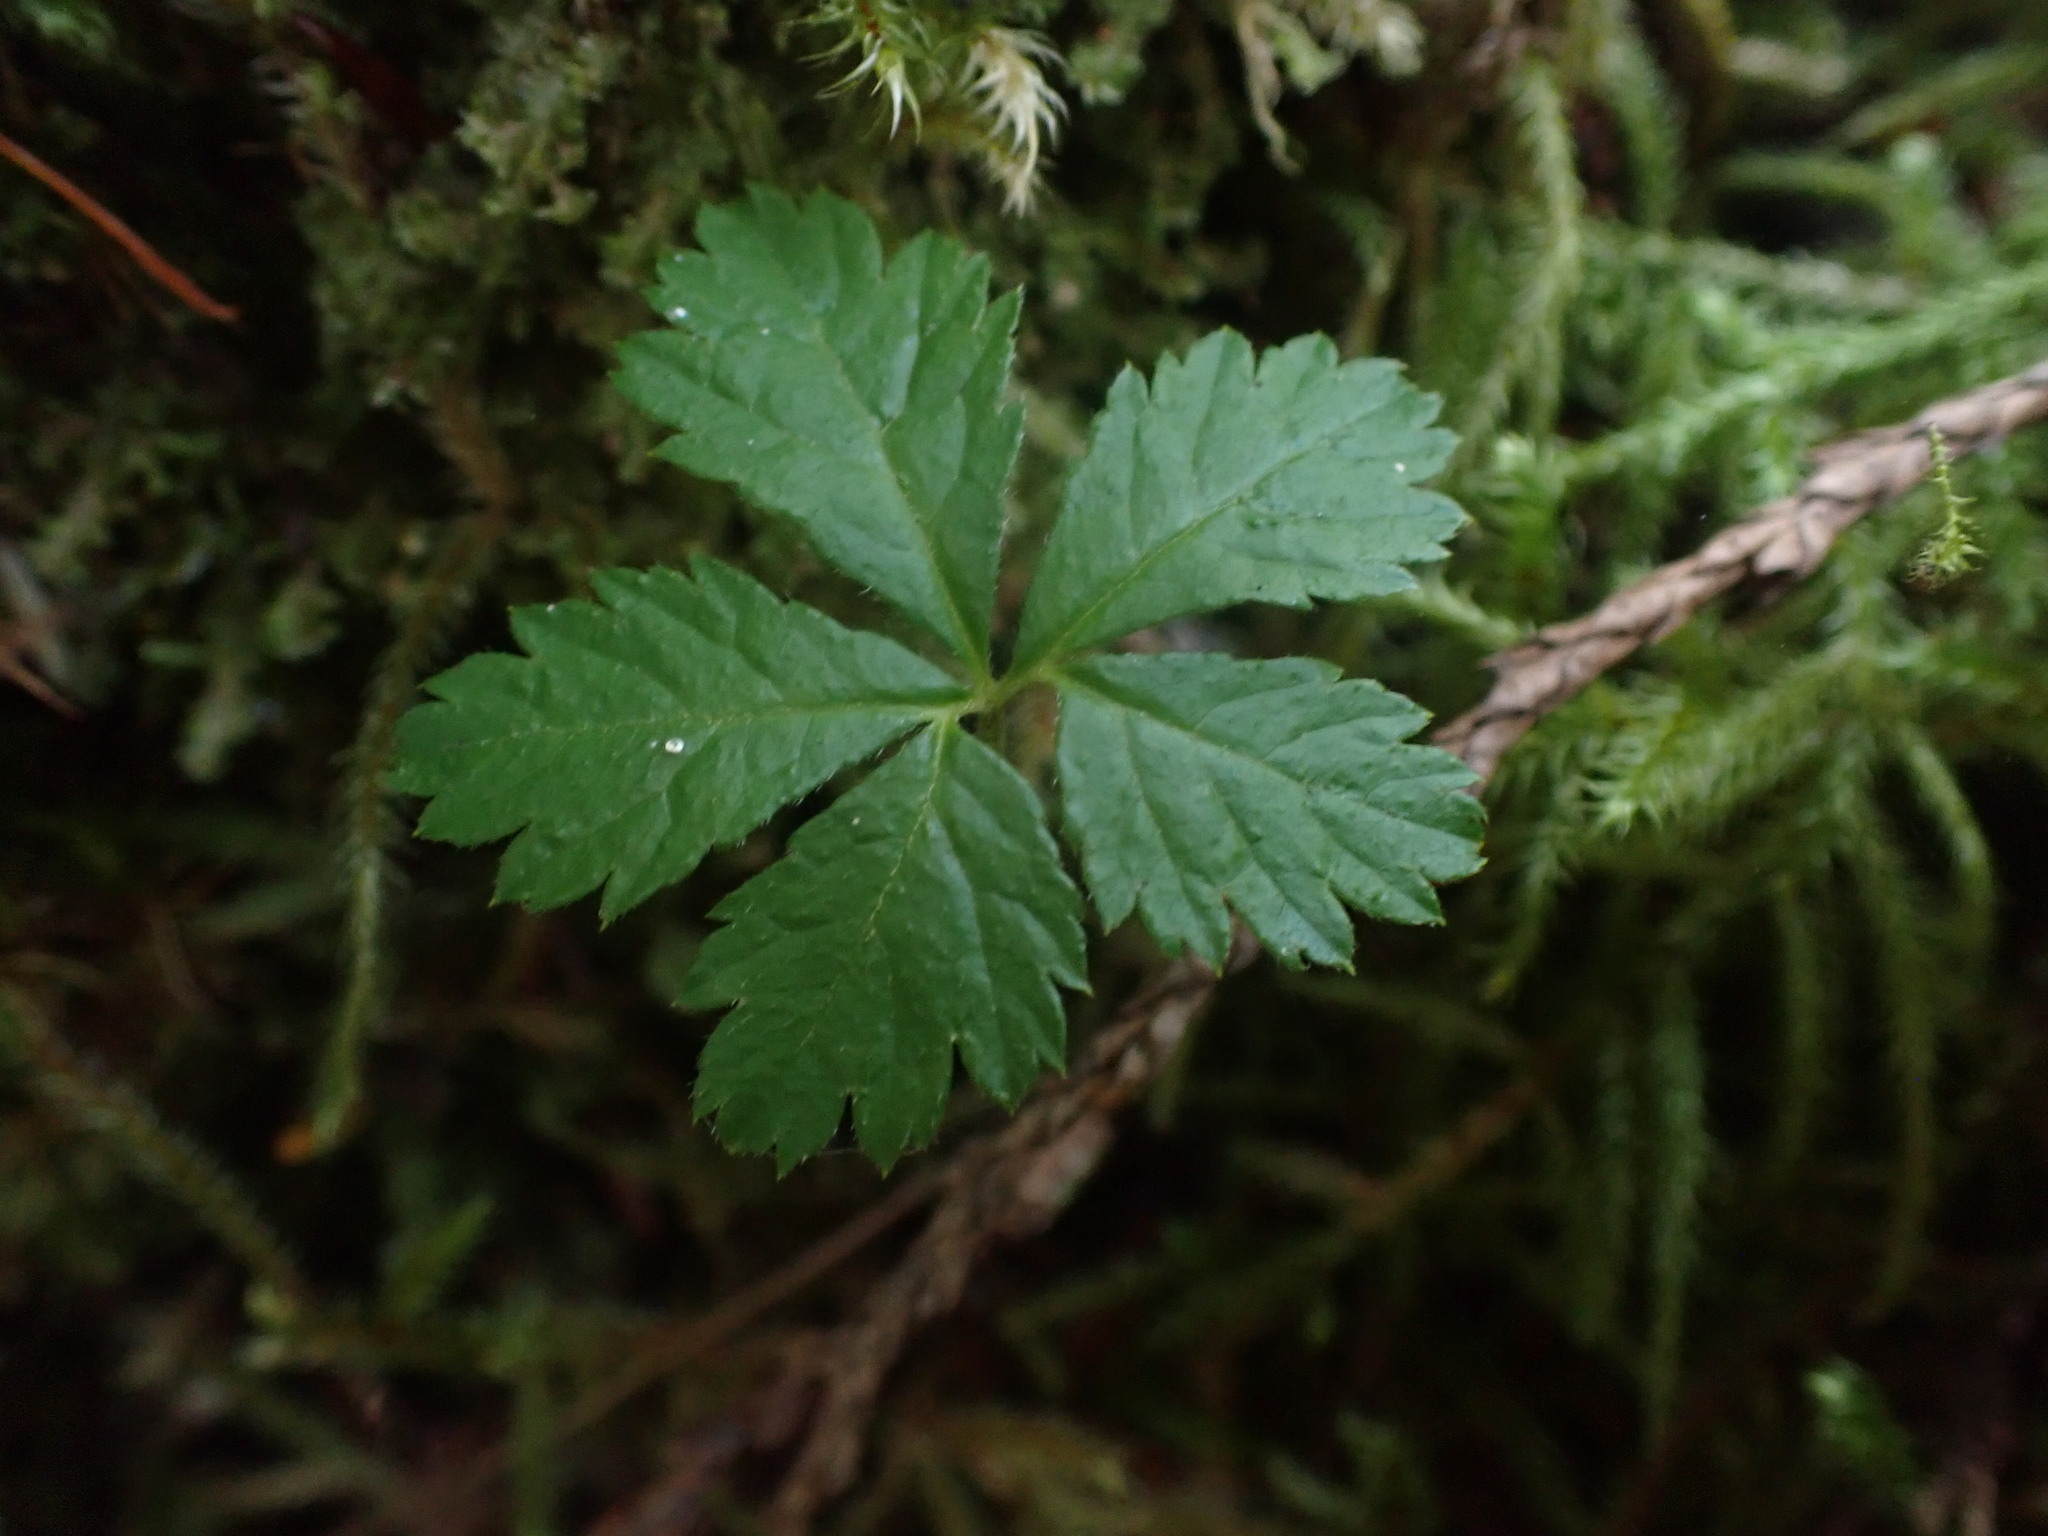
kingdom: Plantae
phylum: Tracheophyta
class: Magnoliopsida
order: Rosales
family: Rosaceae
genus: Rubus
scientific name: Rubus pedatus
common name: Creeping raspberry
